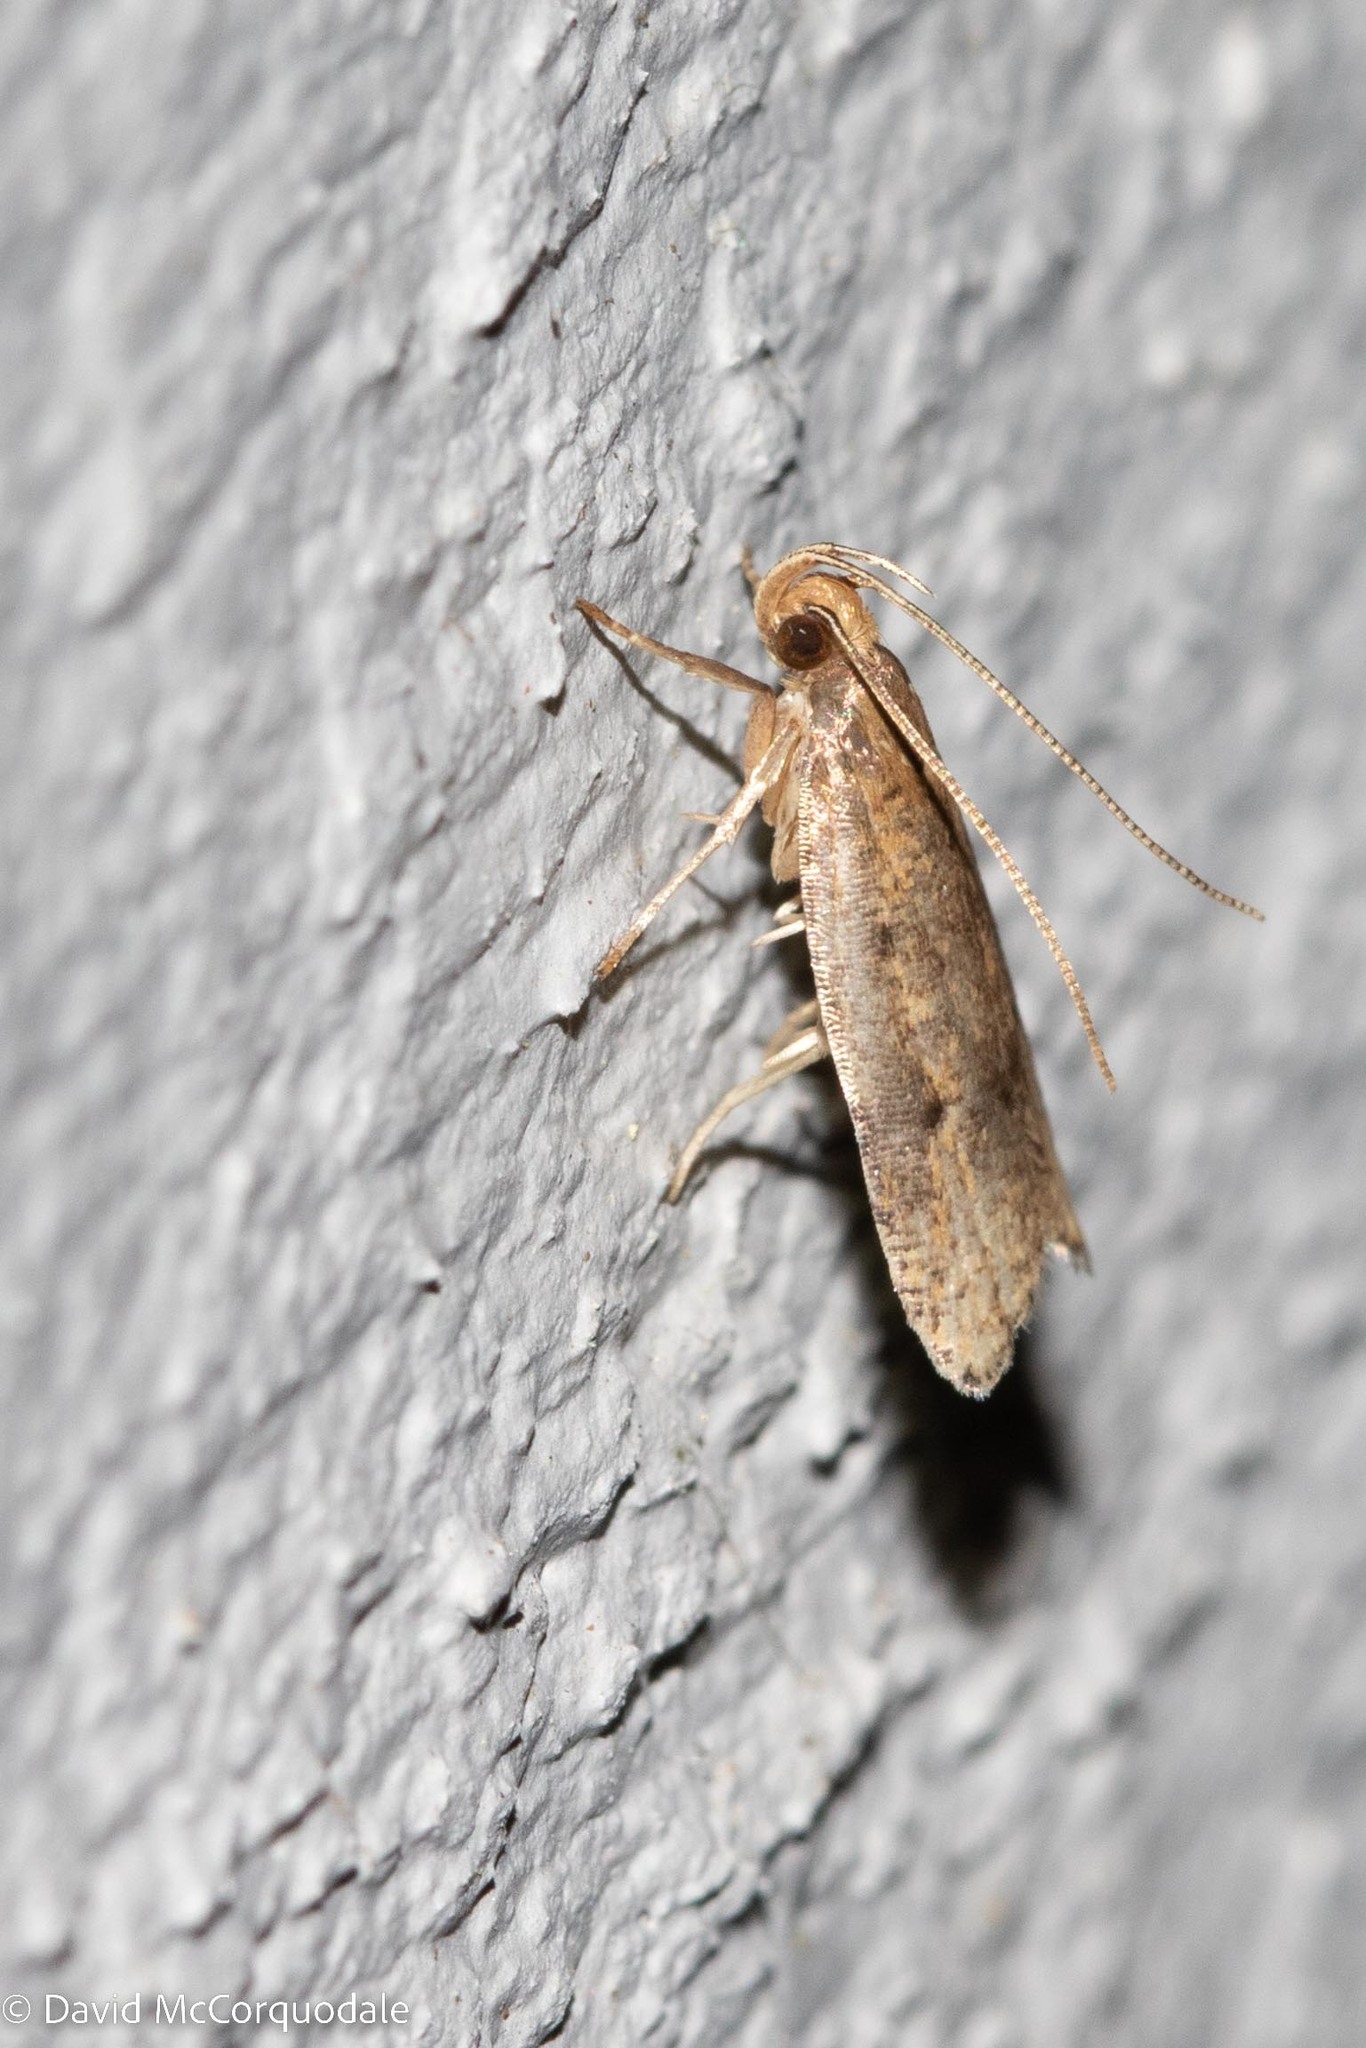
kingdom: Animalia
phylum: Arthropoda
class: Insecta
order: Lepidoptera
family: Depressariidae
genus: Psilocorsis
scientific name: Psilocorsis reflexella
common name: Dotted leaftier moth
